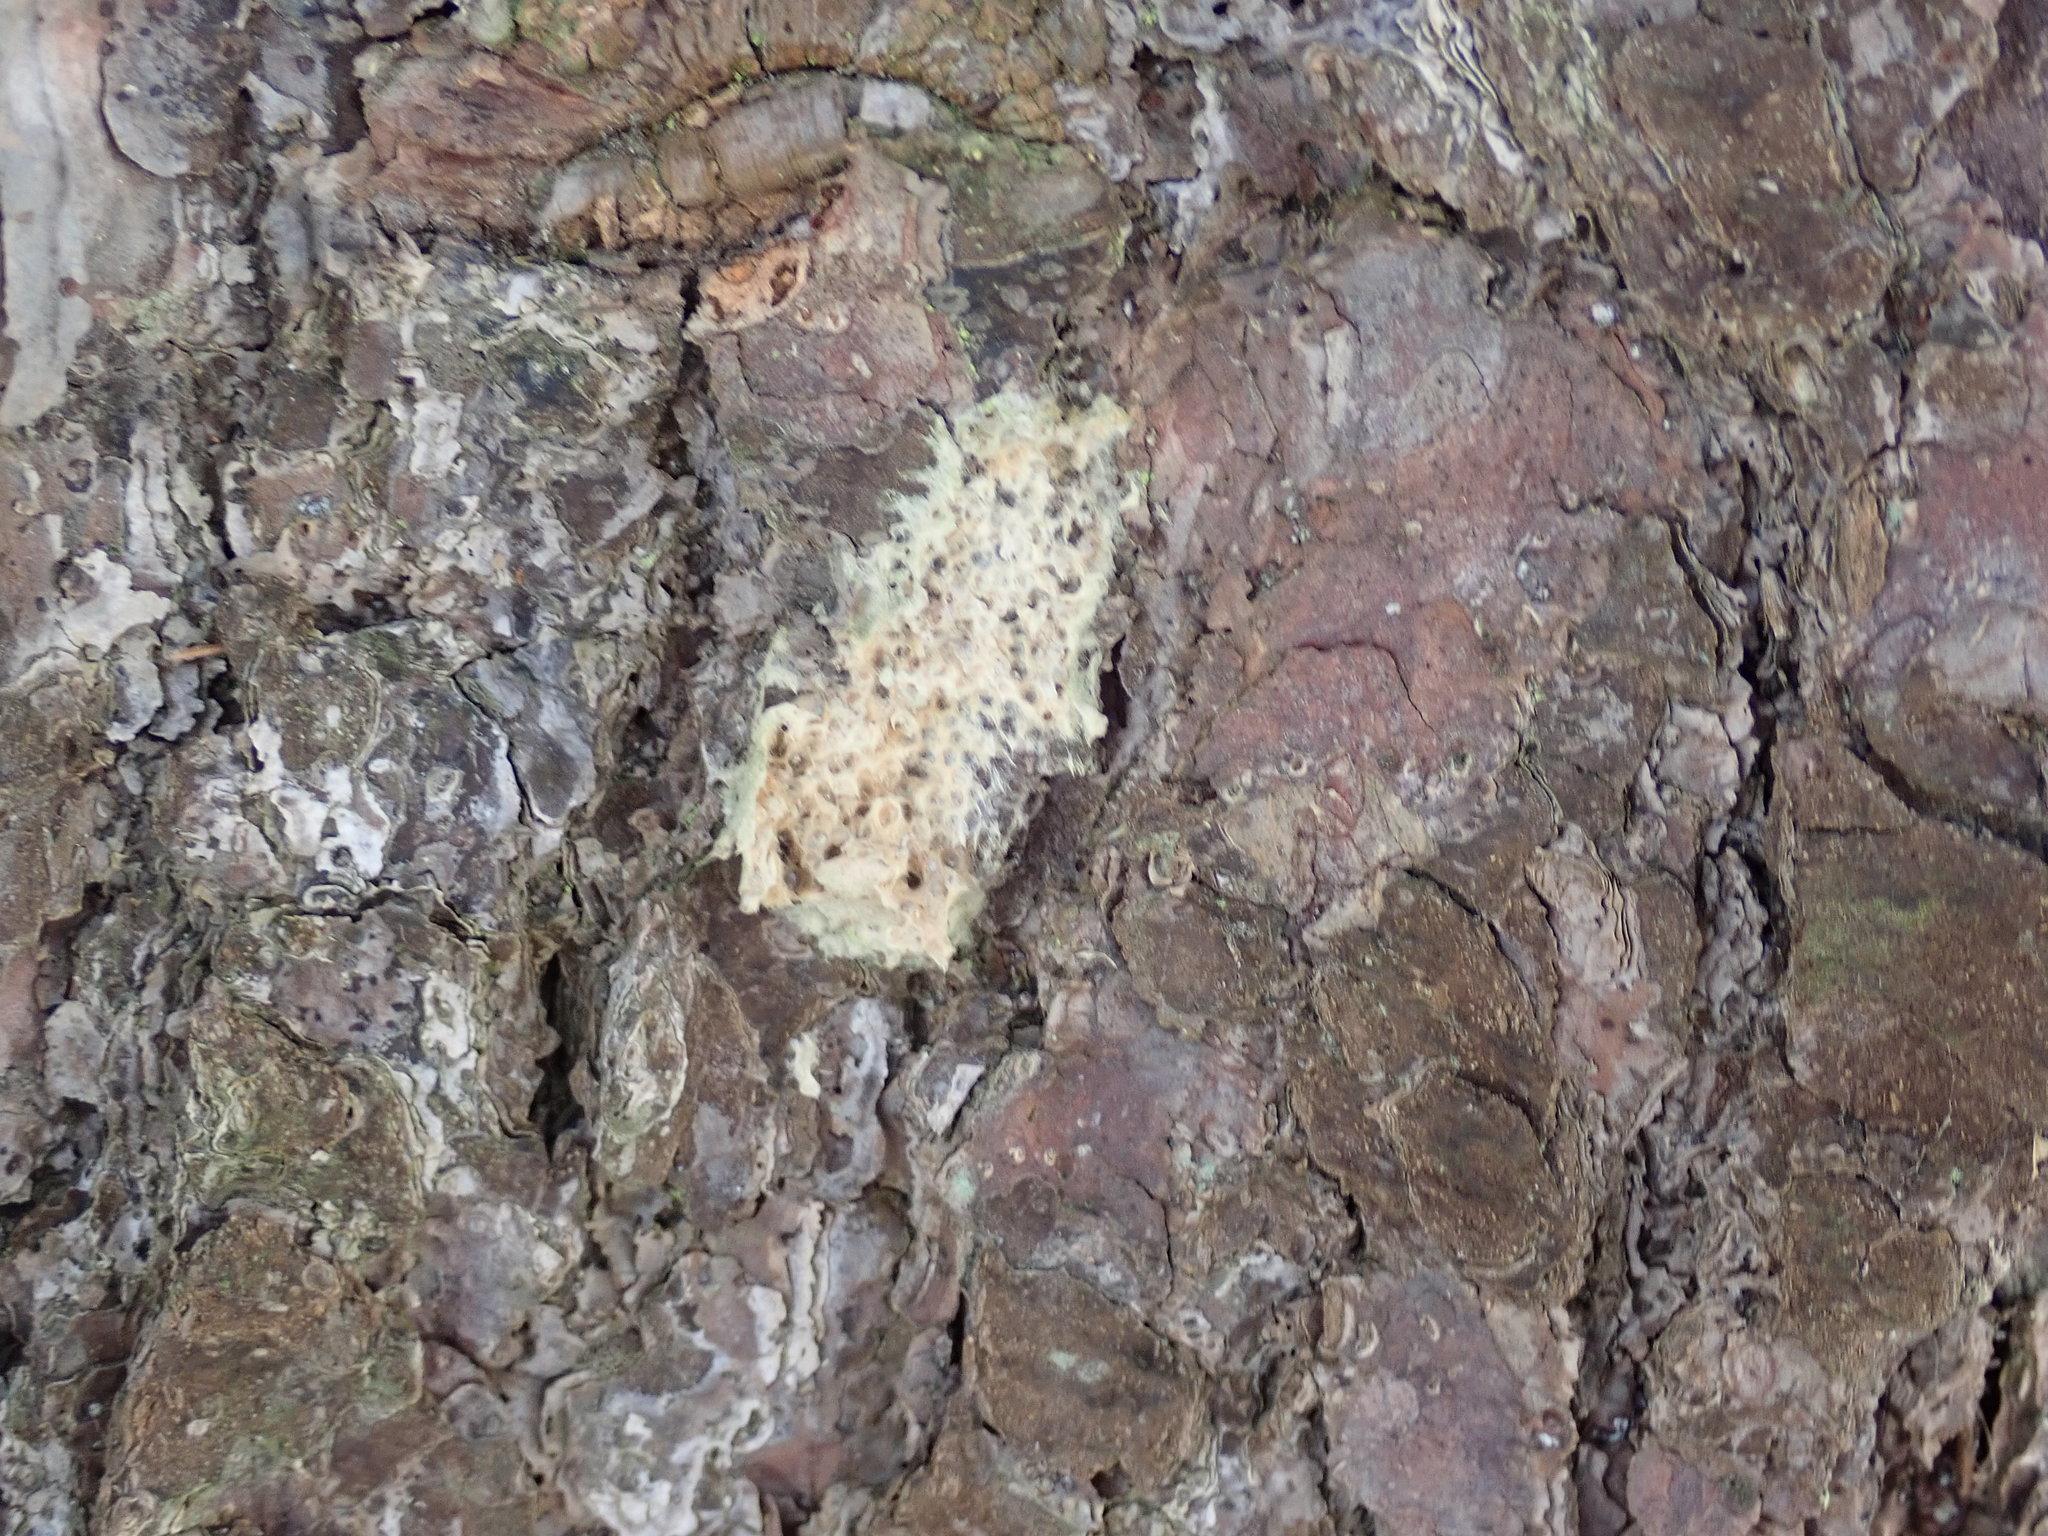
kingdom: Animalia
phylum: Arthropoda
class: Insecta
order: Lepidoptera
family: Erebidae
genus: Lymantria
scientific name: Lymantria dispar
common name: Gypsy moth
